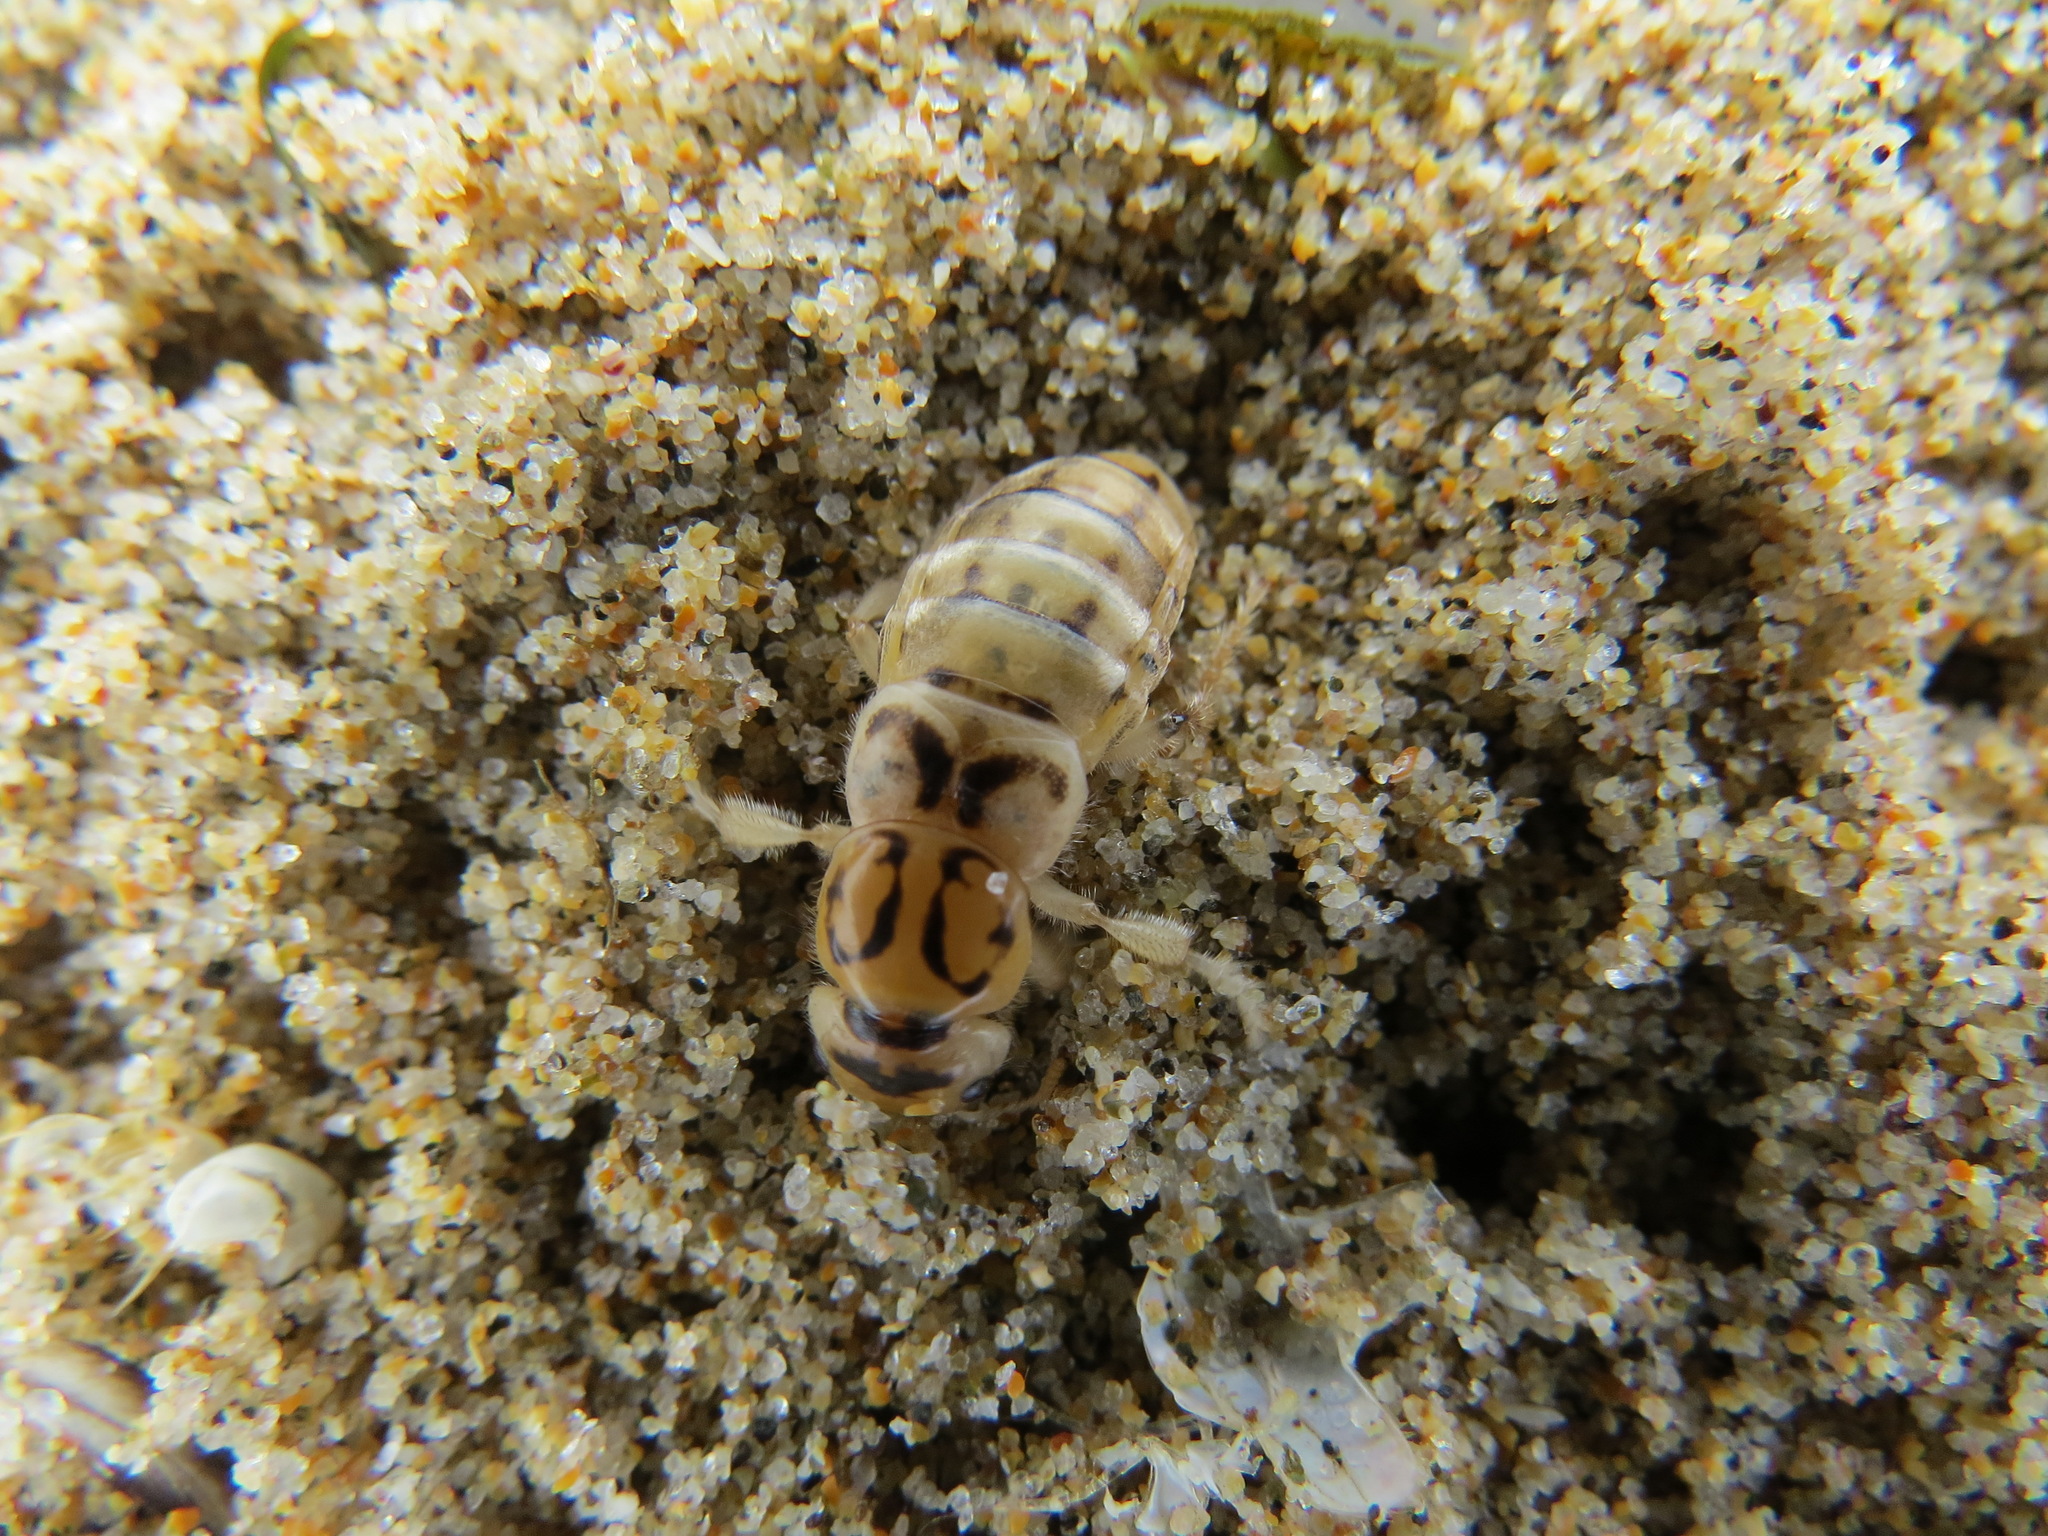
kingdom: Animalia
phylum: Arthropoda
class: Insecta
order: Coleoptera
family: Staphylinidae
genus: Thinopinus
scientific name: Thinopinus pictus
